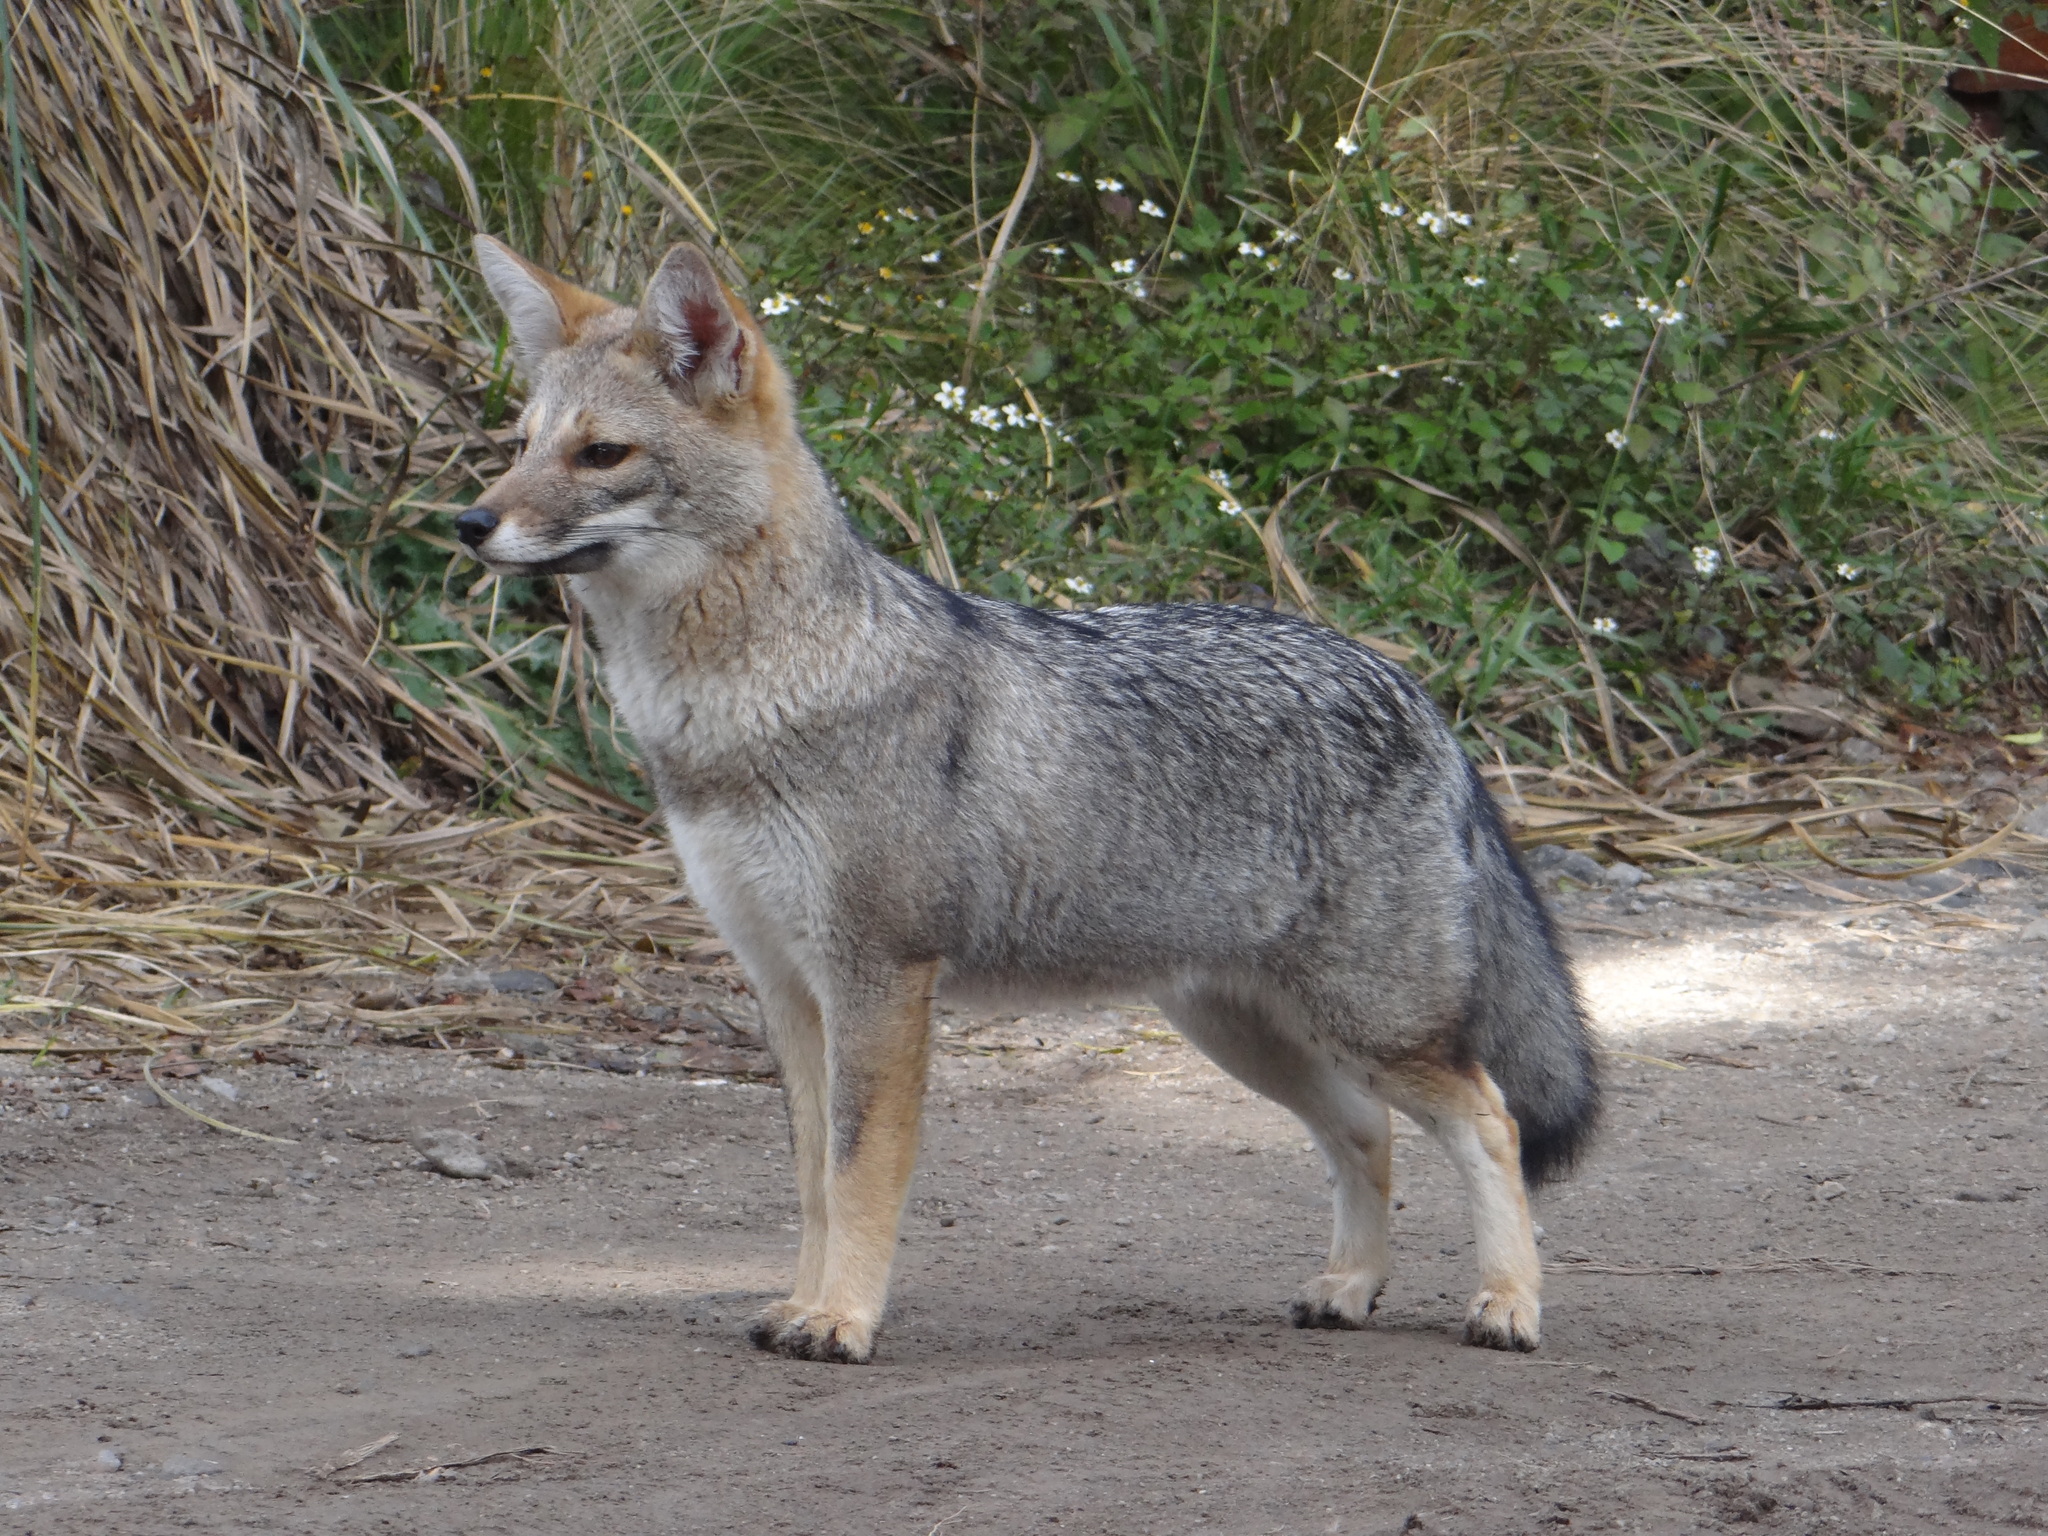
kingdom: Animalia
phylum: Chordata
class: Mammalia
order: Carnivora
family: Canidae
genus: Lycalopex
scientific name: Lycalopex gymnocercus
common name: Pampas fox
